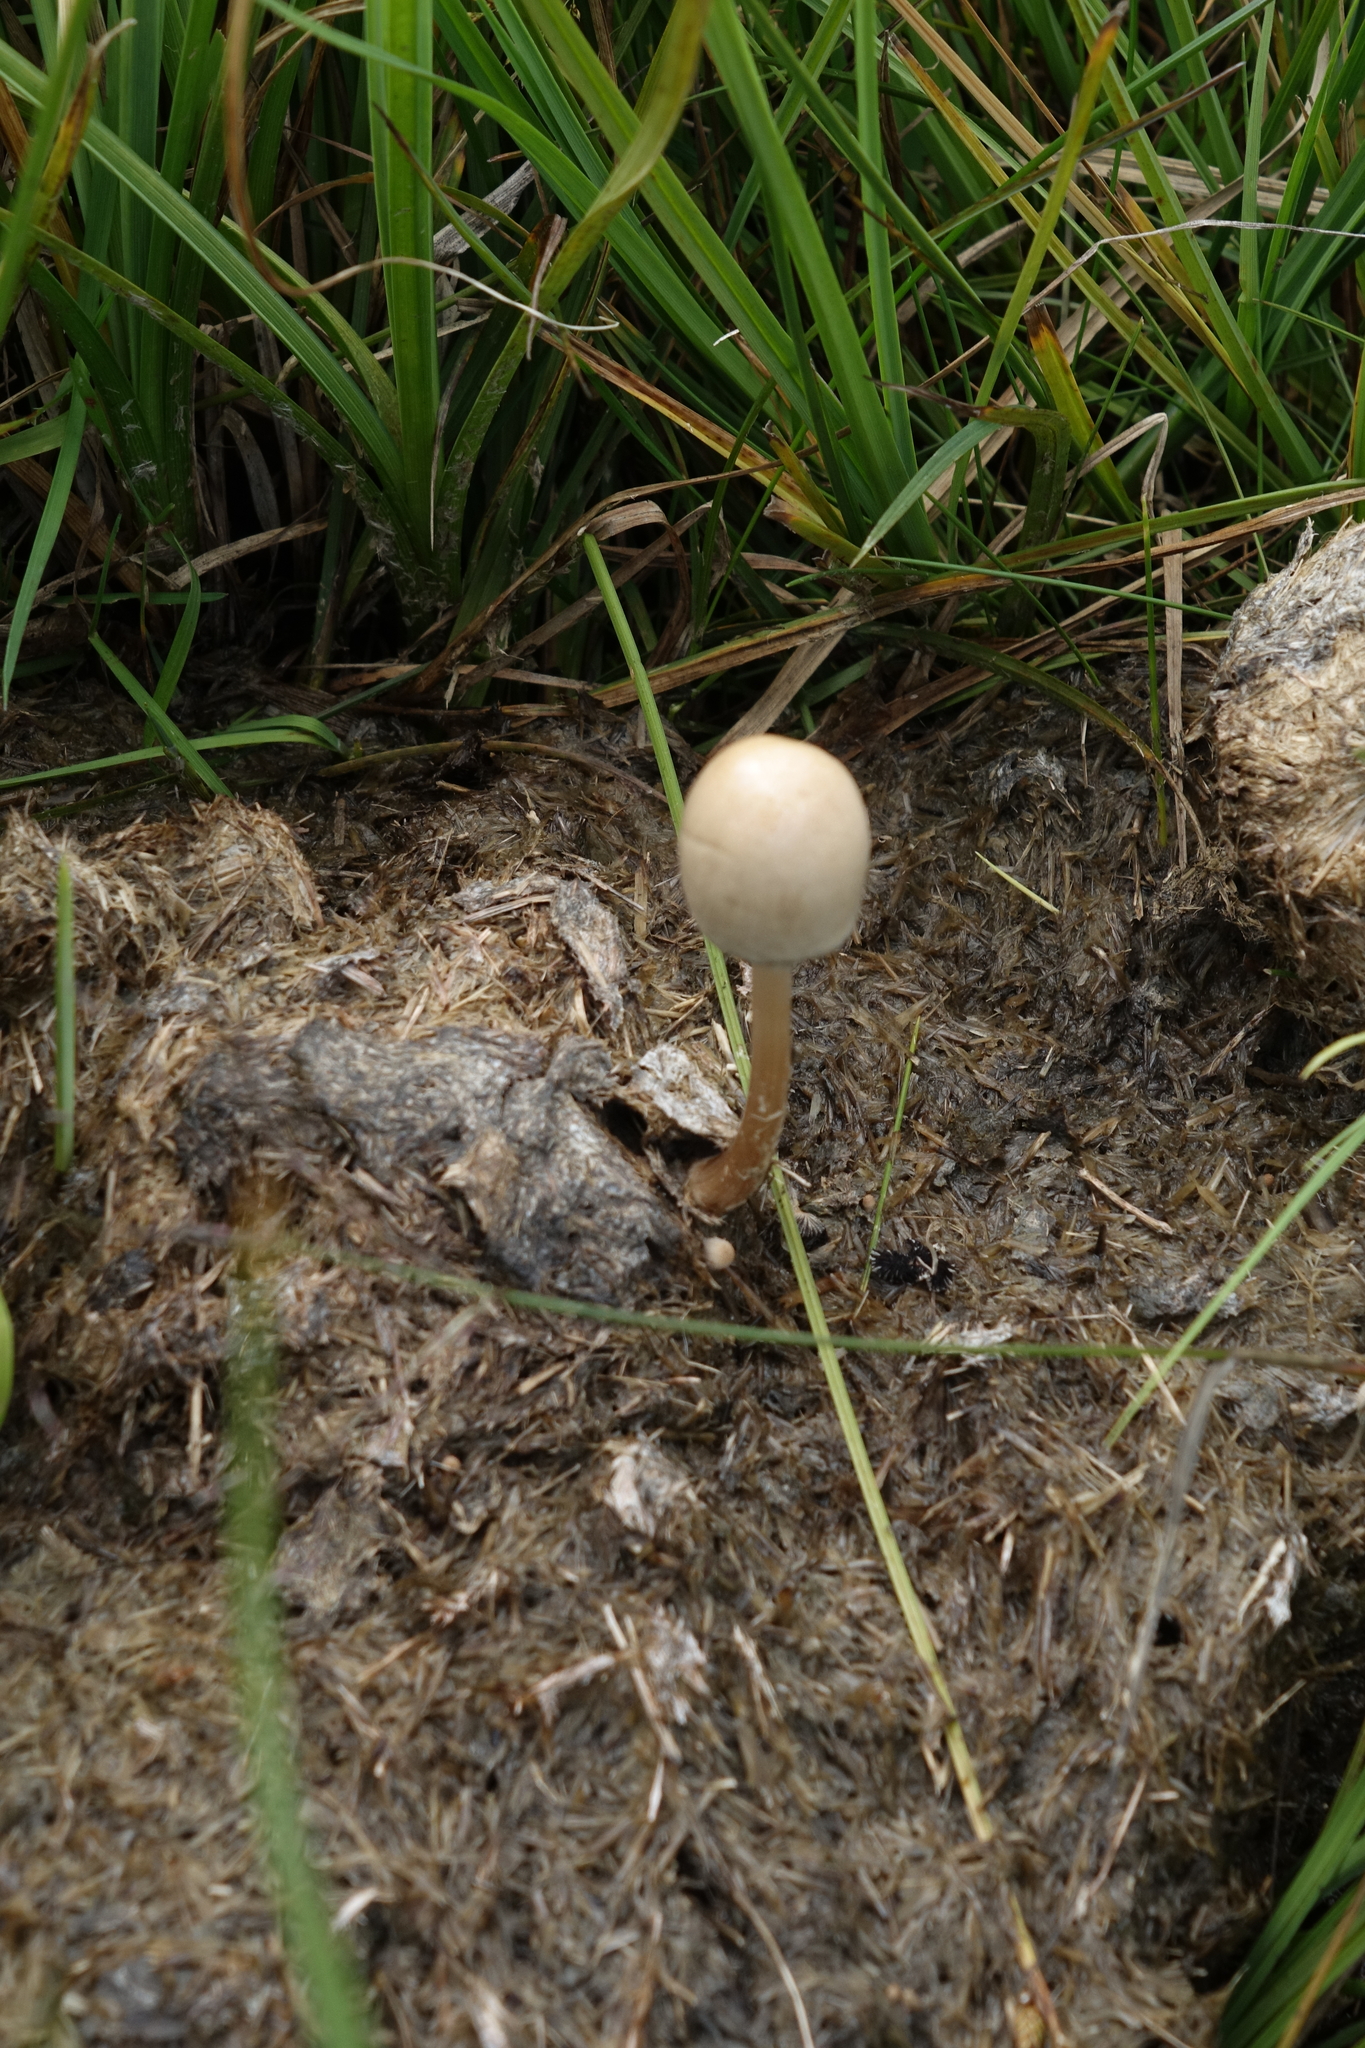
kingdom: Fungi
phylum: Basidiomycota
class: Agaricomycetes
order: Agaricales
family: Bolbitiaceae
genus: Panaeolus
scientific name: Panaeolus semiovatus
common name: Shiny mottlegill
